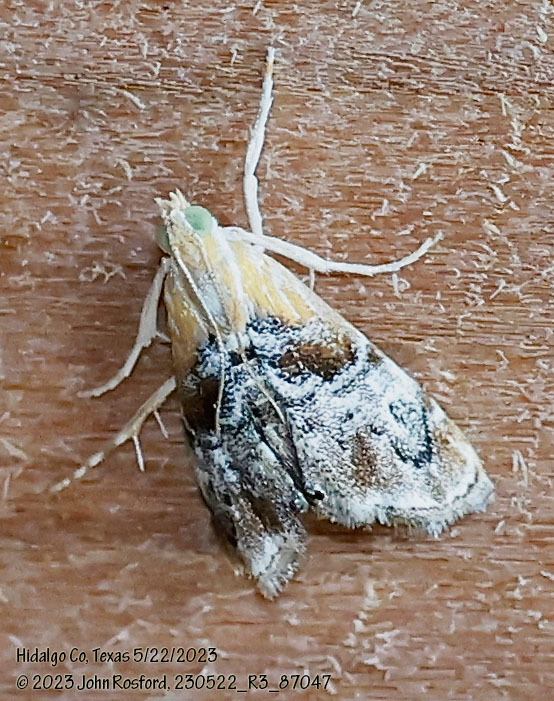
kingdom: Animalia
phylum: Arthropoda
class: Insecta
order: Lepidoptera
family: Crambidae
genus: Dicymolomia
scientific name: Dicymolomia julianalis
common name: Julia's dicymolomia moth
